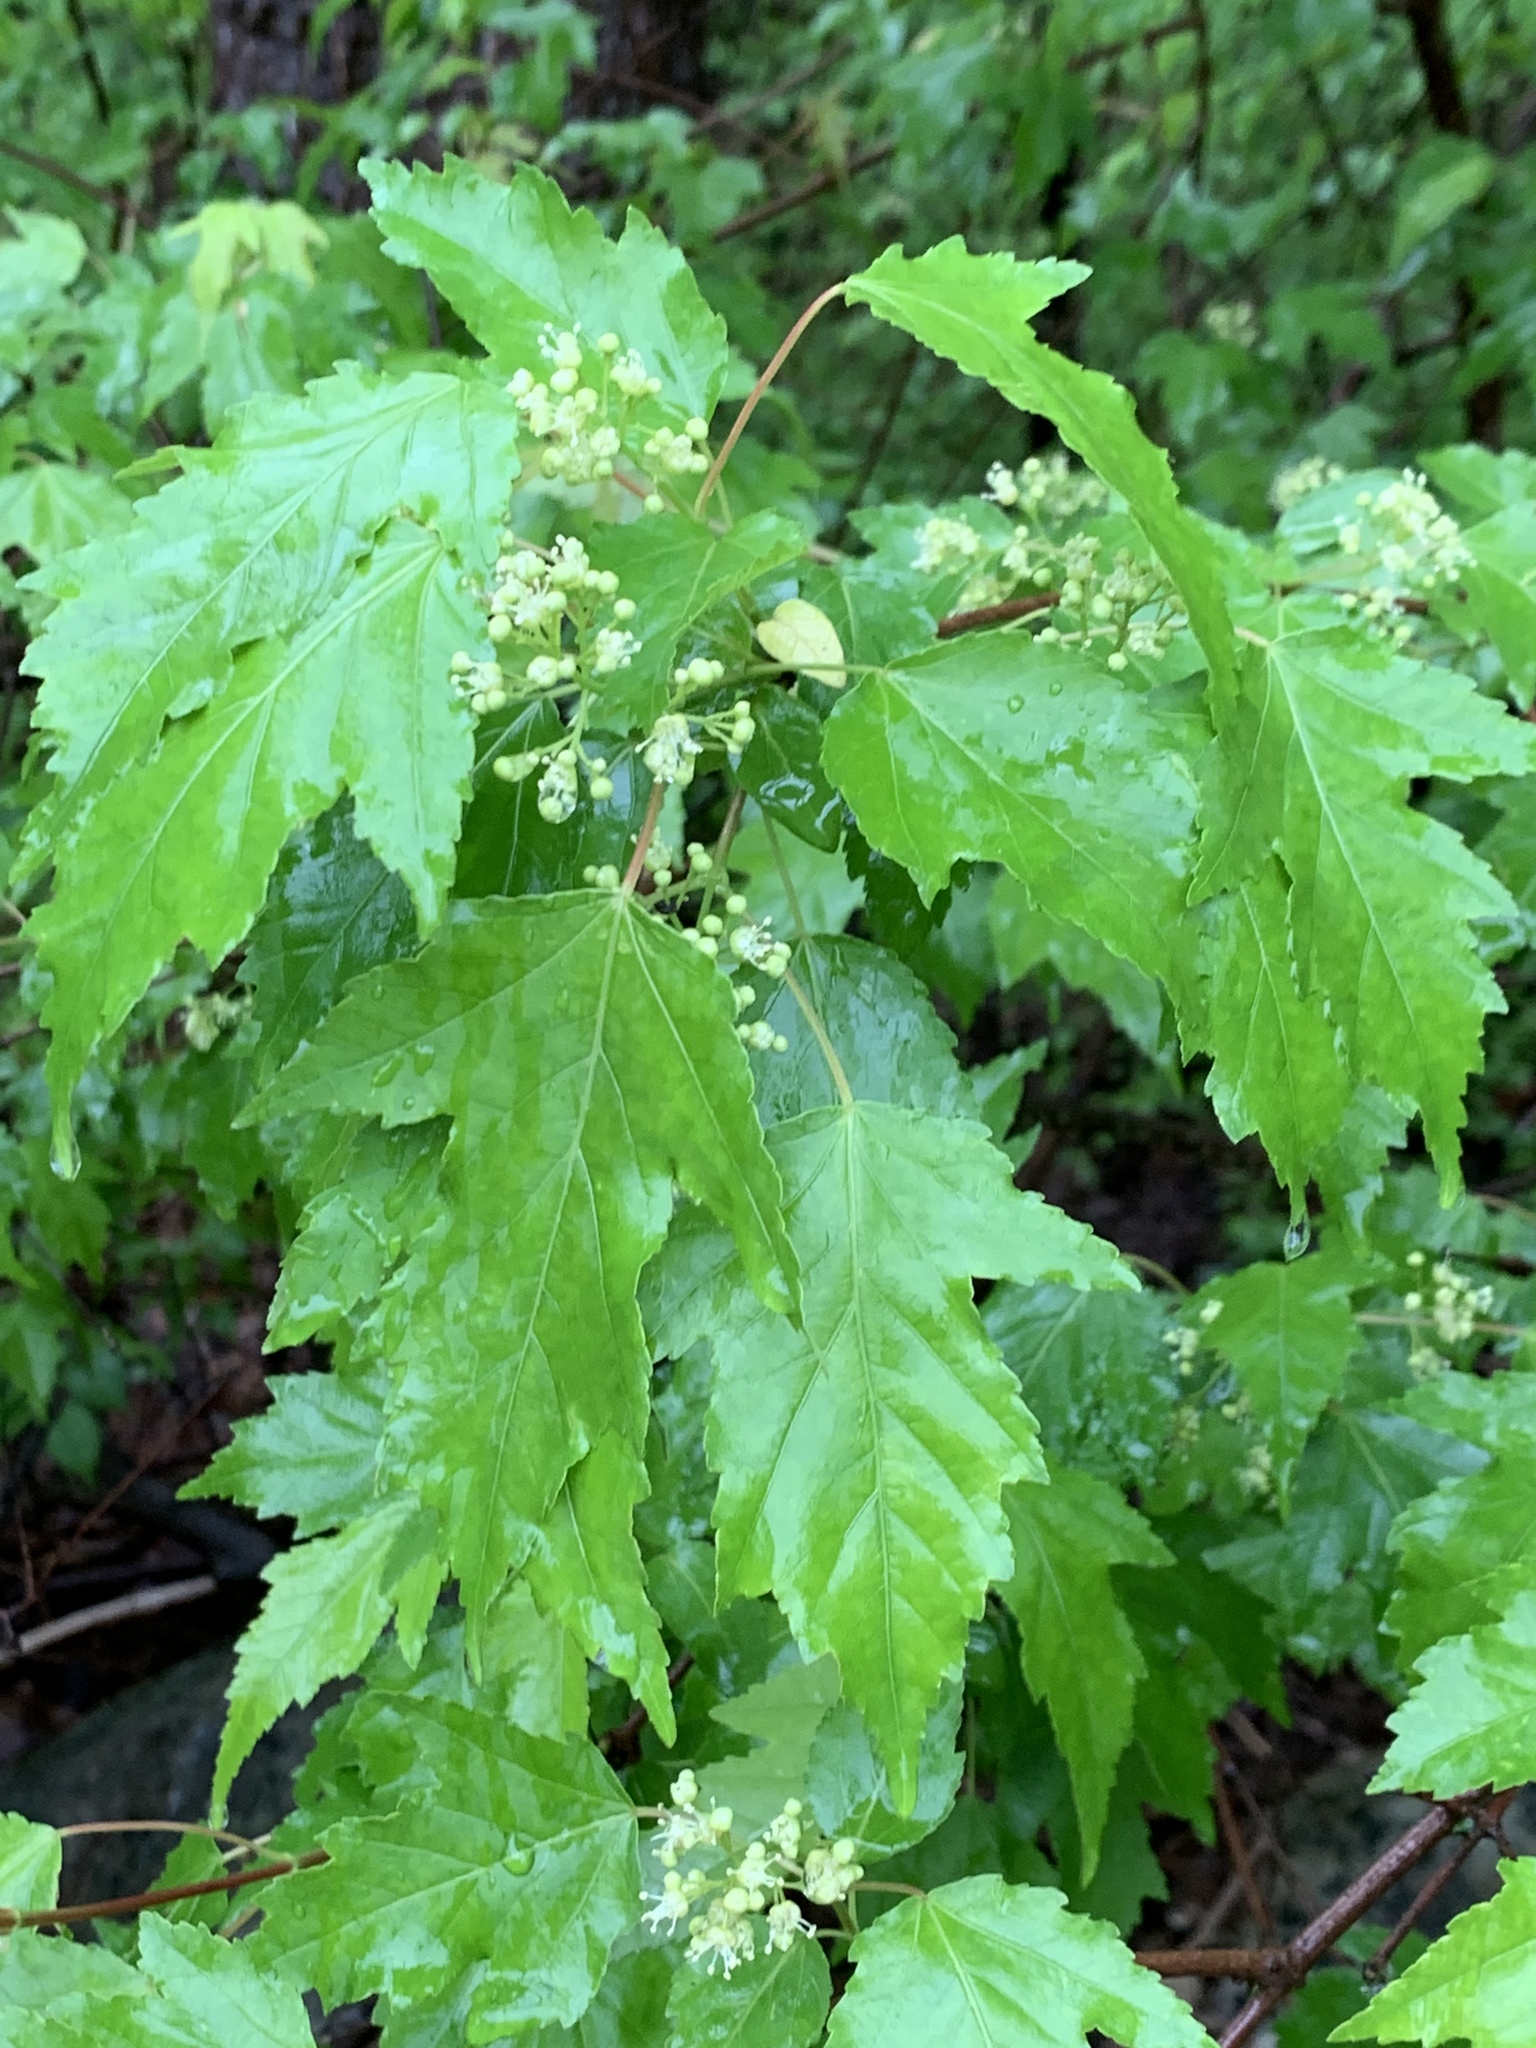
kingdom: Plantae
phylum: Tracheophyta
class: Magnoliopsida
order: Sapindales
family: Sapindaceae
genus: Acer
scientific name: Acer tataricum
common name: Tartar maple
